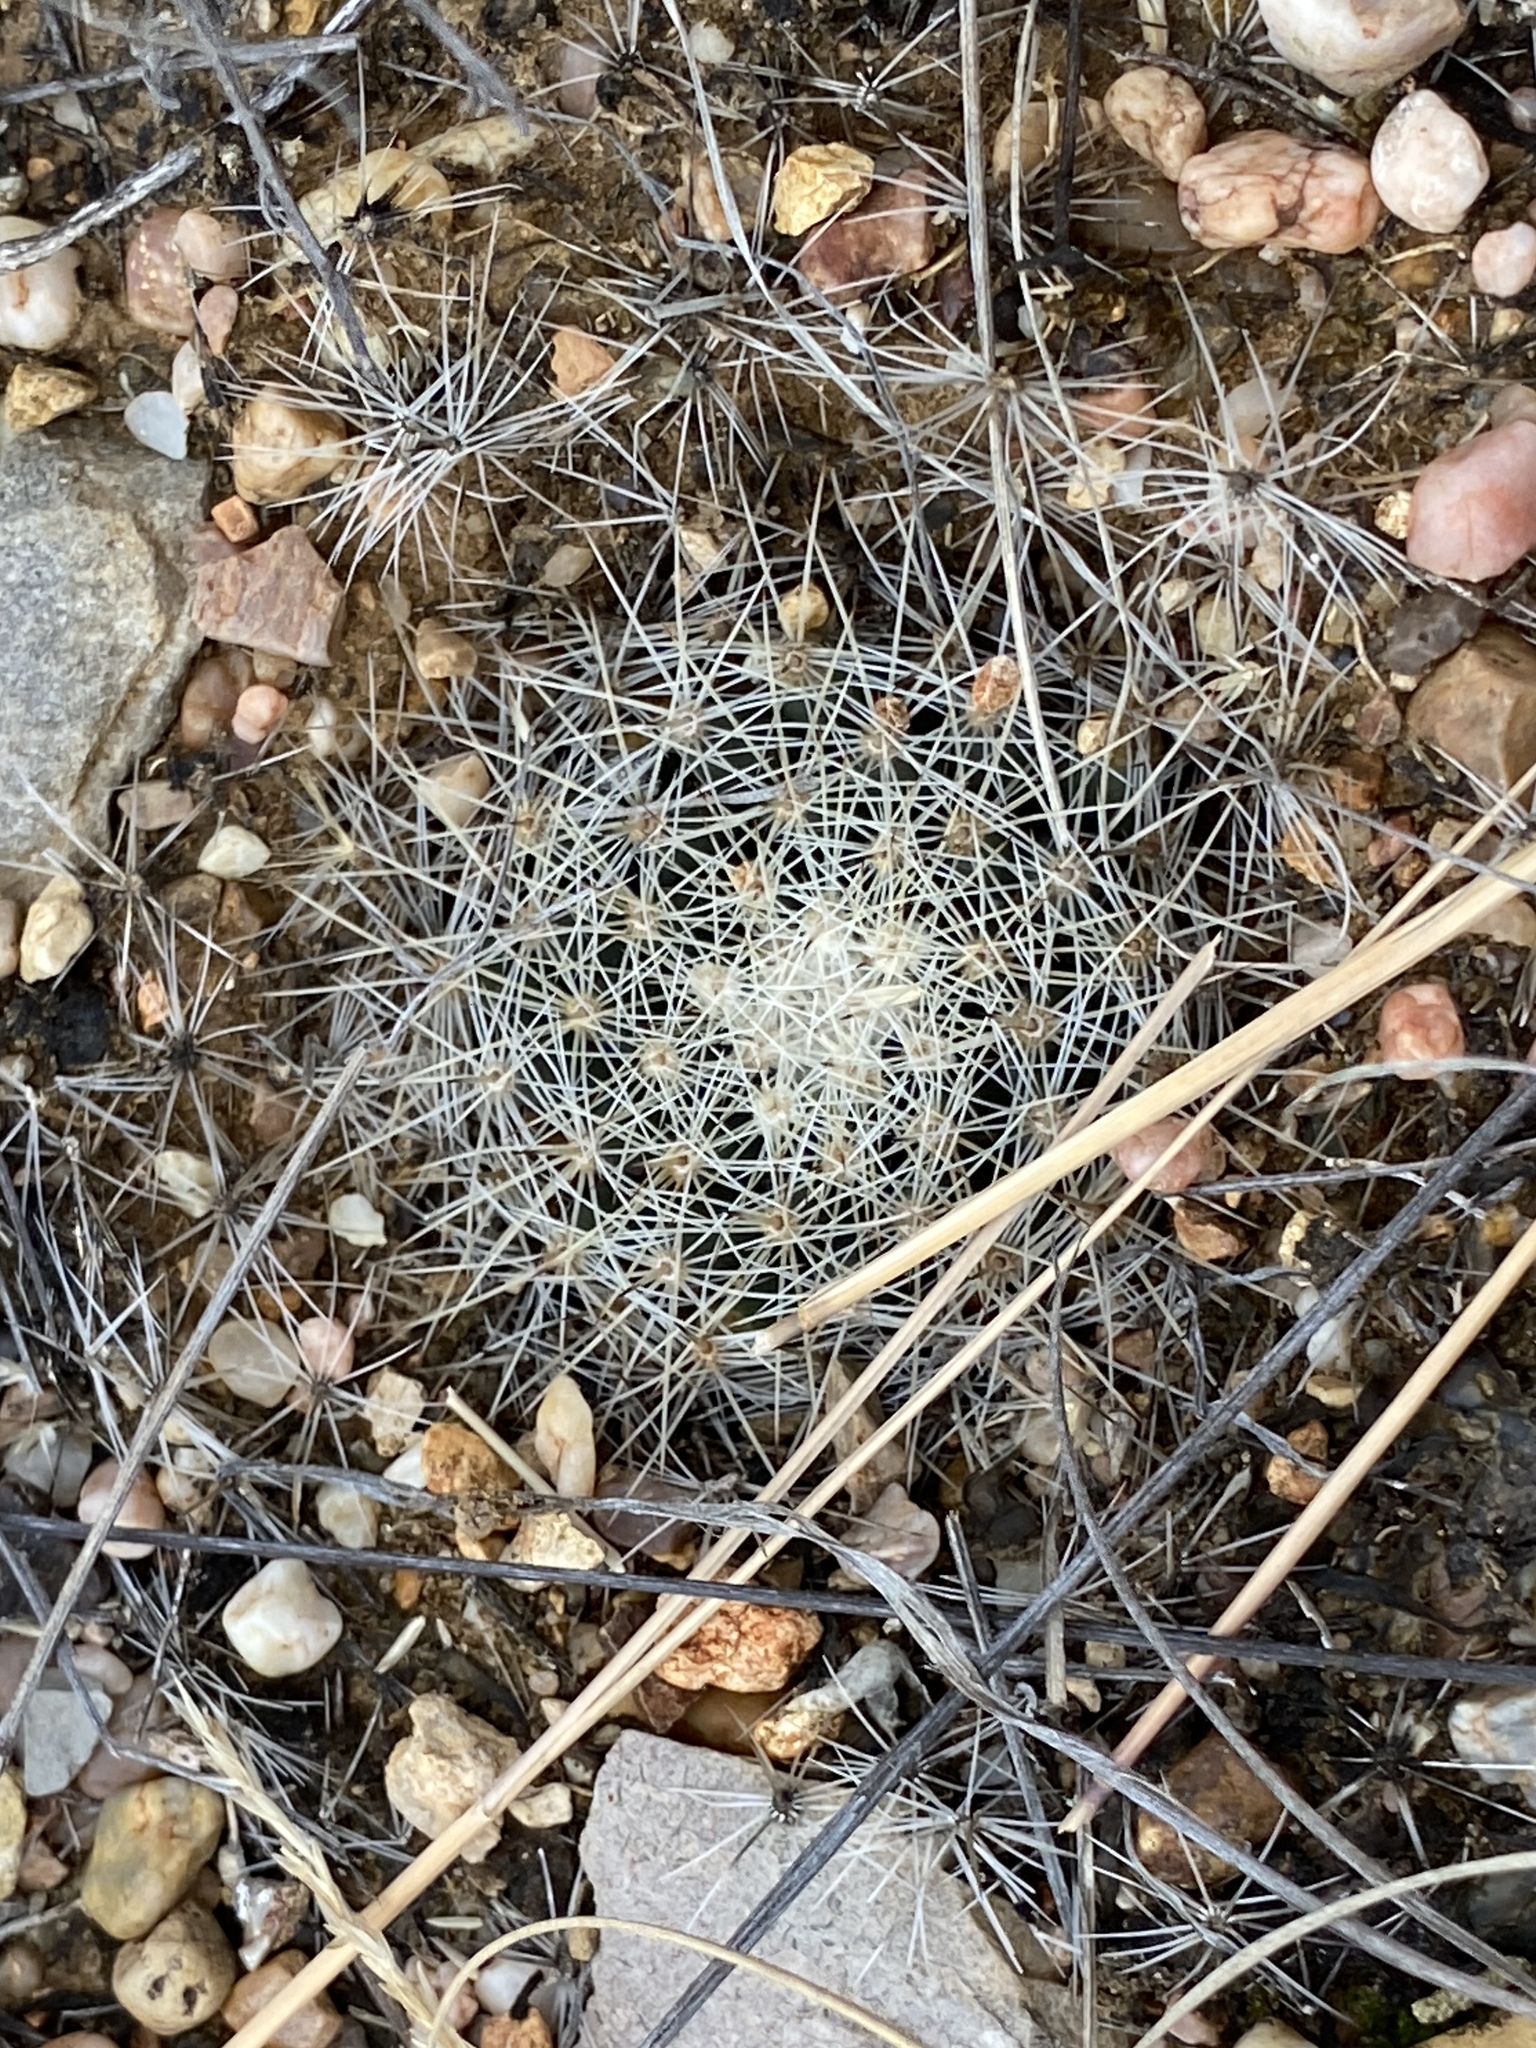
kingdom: Plantae
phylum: Tracheophyta
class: Magnoliopsida
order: Caryophyllales
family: Cactaceae
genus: Mammillaria
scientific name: Mammillaria heyderi
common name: Little nipple cactus
